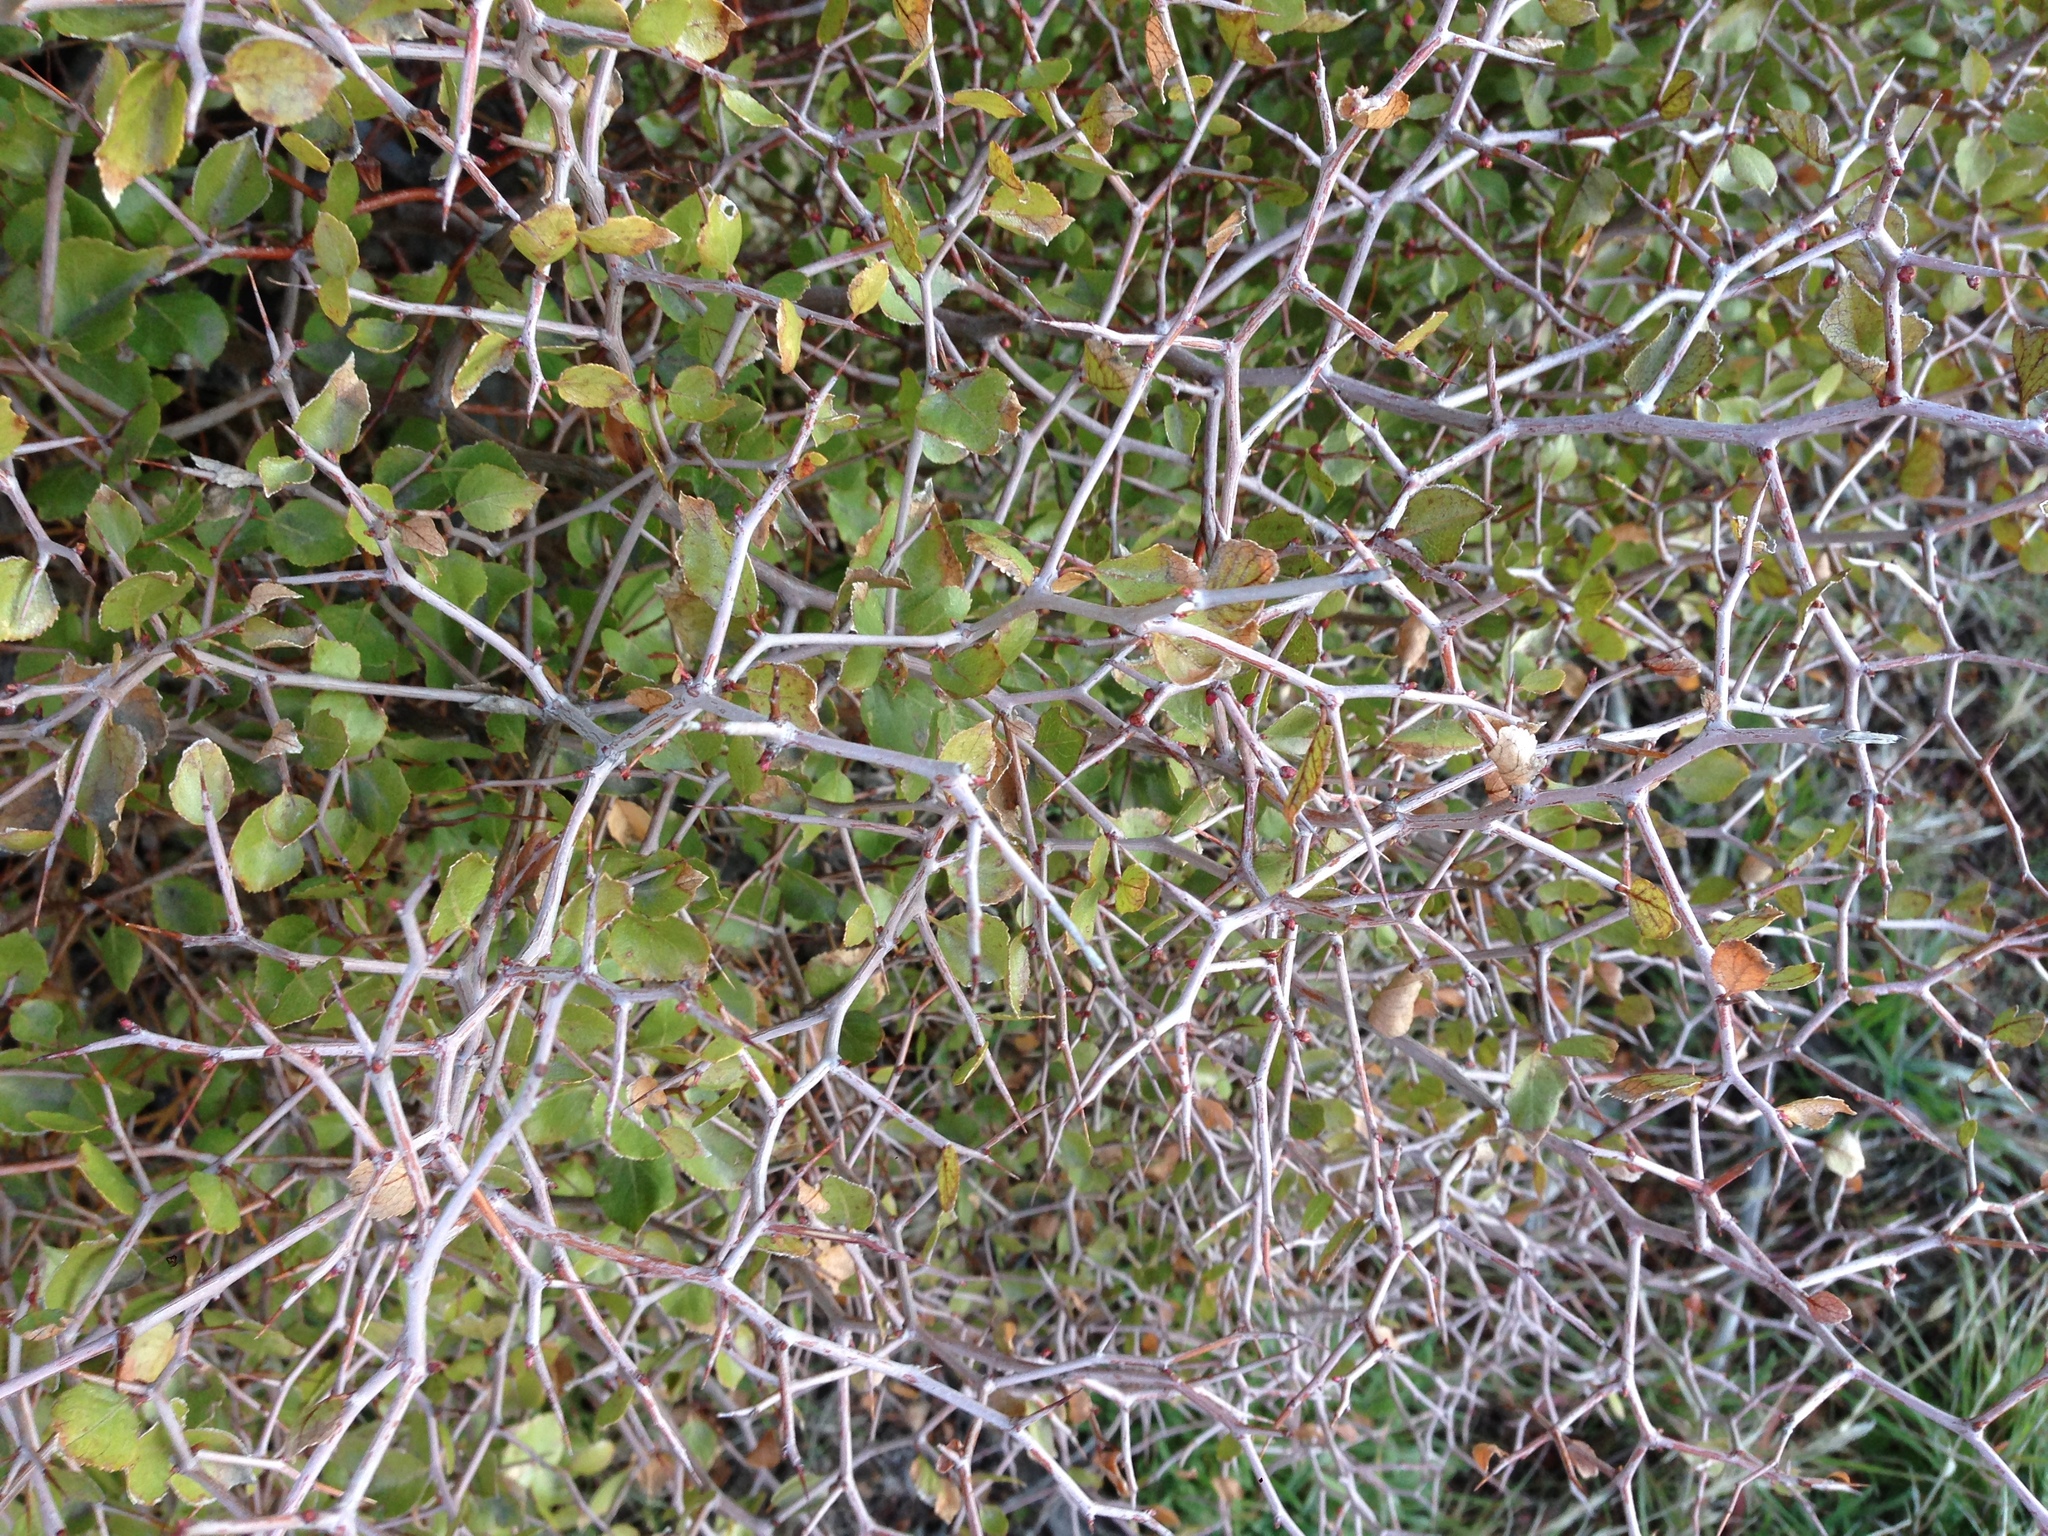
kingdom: Plantae
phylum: Tracheophyta
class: Magnoliopsida
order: Rosales
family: Rosaceae
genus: Prunus
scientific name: Prunus fremontii
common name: Desert apricot
